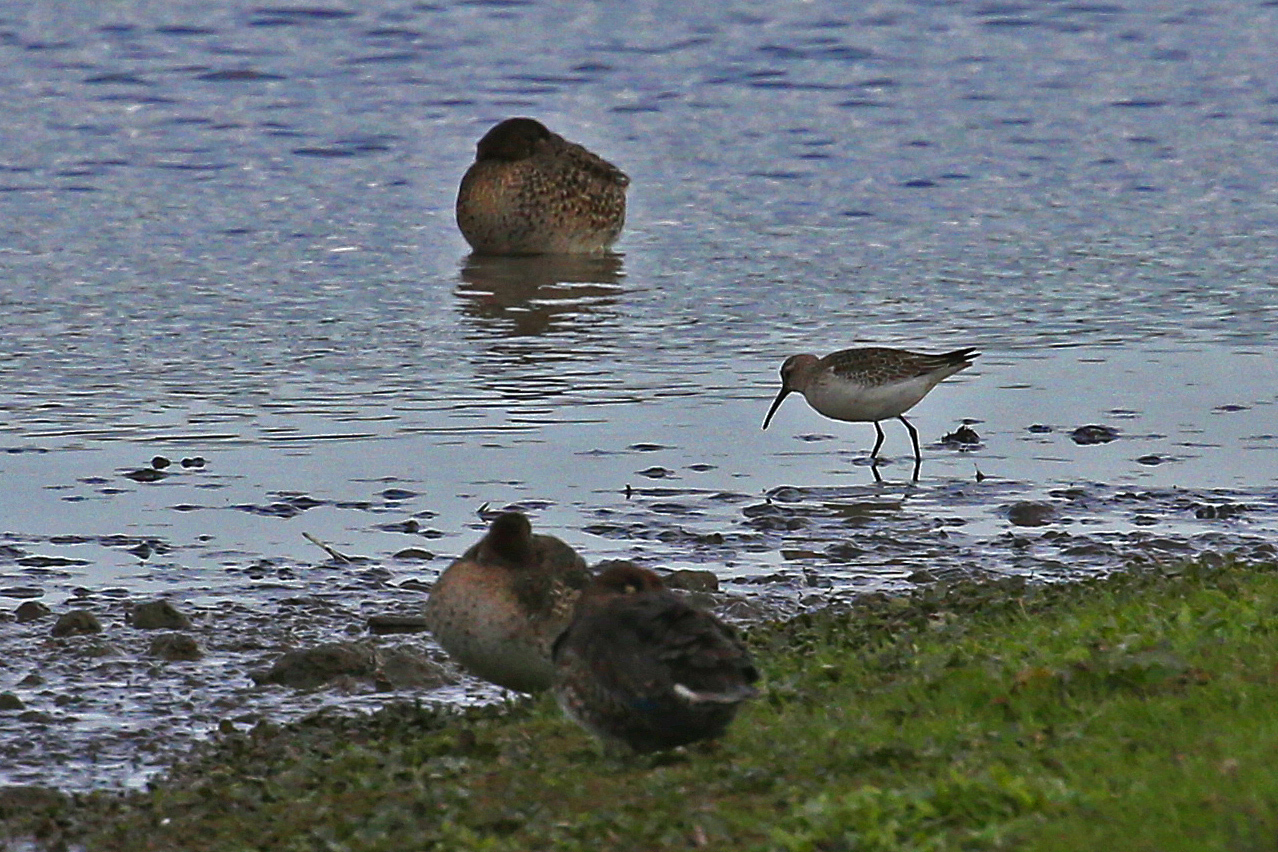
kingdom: Animalia
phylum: Chordata
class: Aves
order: Charadriiformes
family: Scolopacidae
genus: Calidris
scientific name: Calidris ferruginea
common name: Curlew sandpiper
